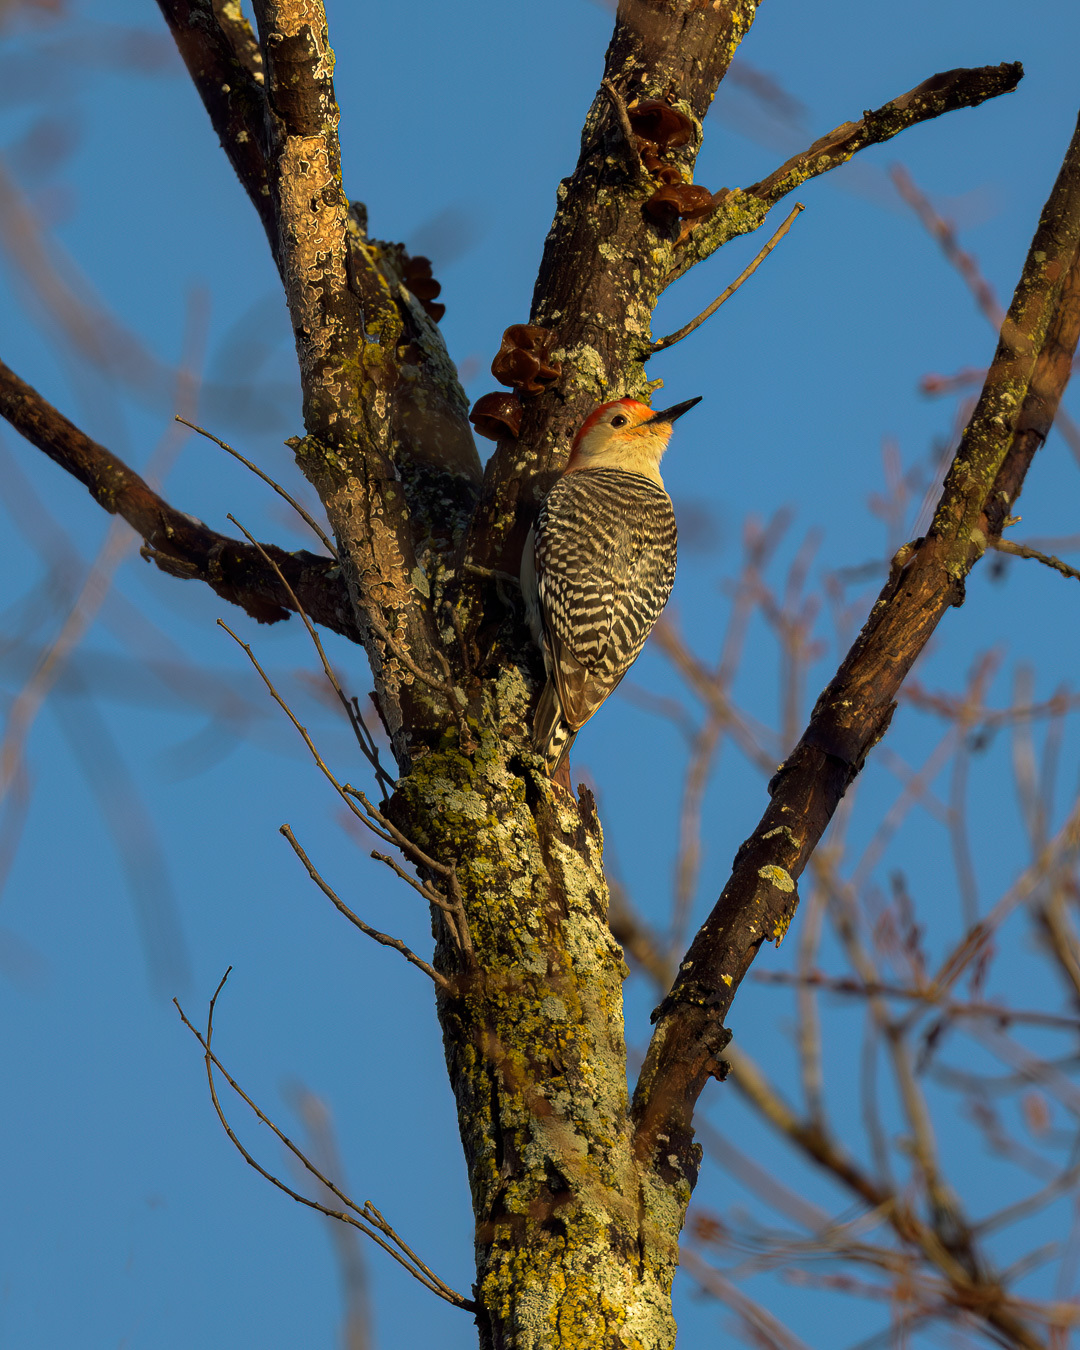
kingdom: Animalia
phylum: Chordata
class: Aves
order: Piciformes
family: Picidae
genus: Melanerpes
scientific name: Melanerpes carolinus
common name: Red-bellied woodpecker
